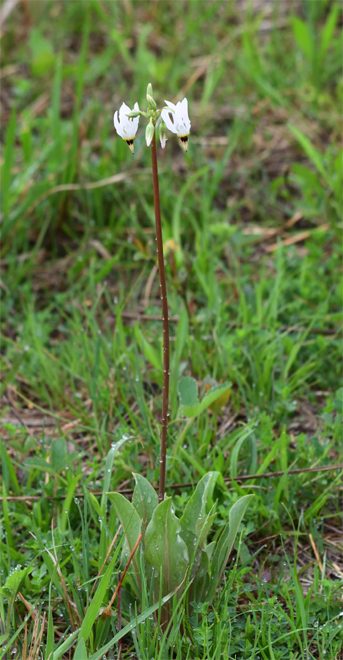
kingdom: Plantae
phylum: Tracheophyta
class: Magnoliopsida
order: Ericales
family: Primulaceae
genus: Dodecatheon
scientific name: Dodecatheon meadia
